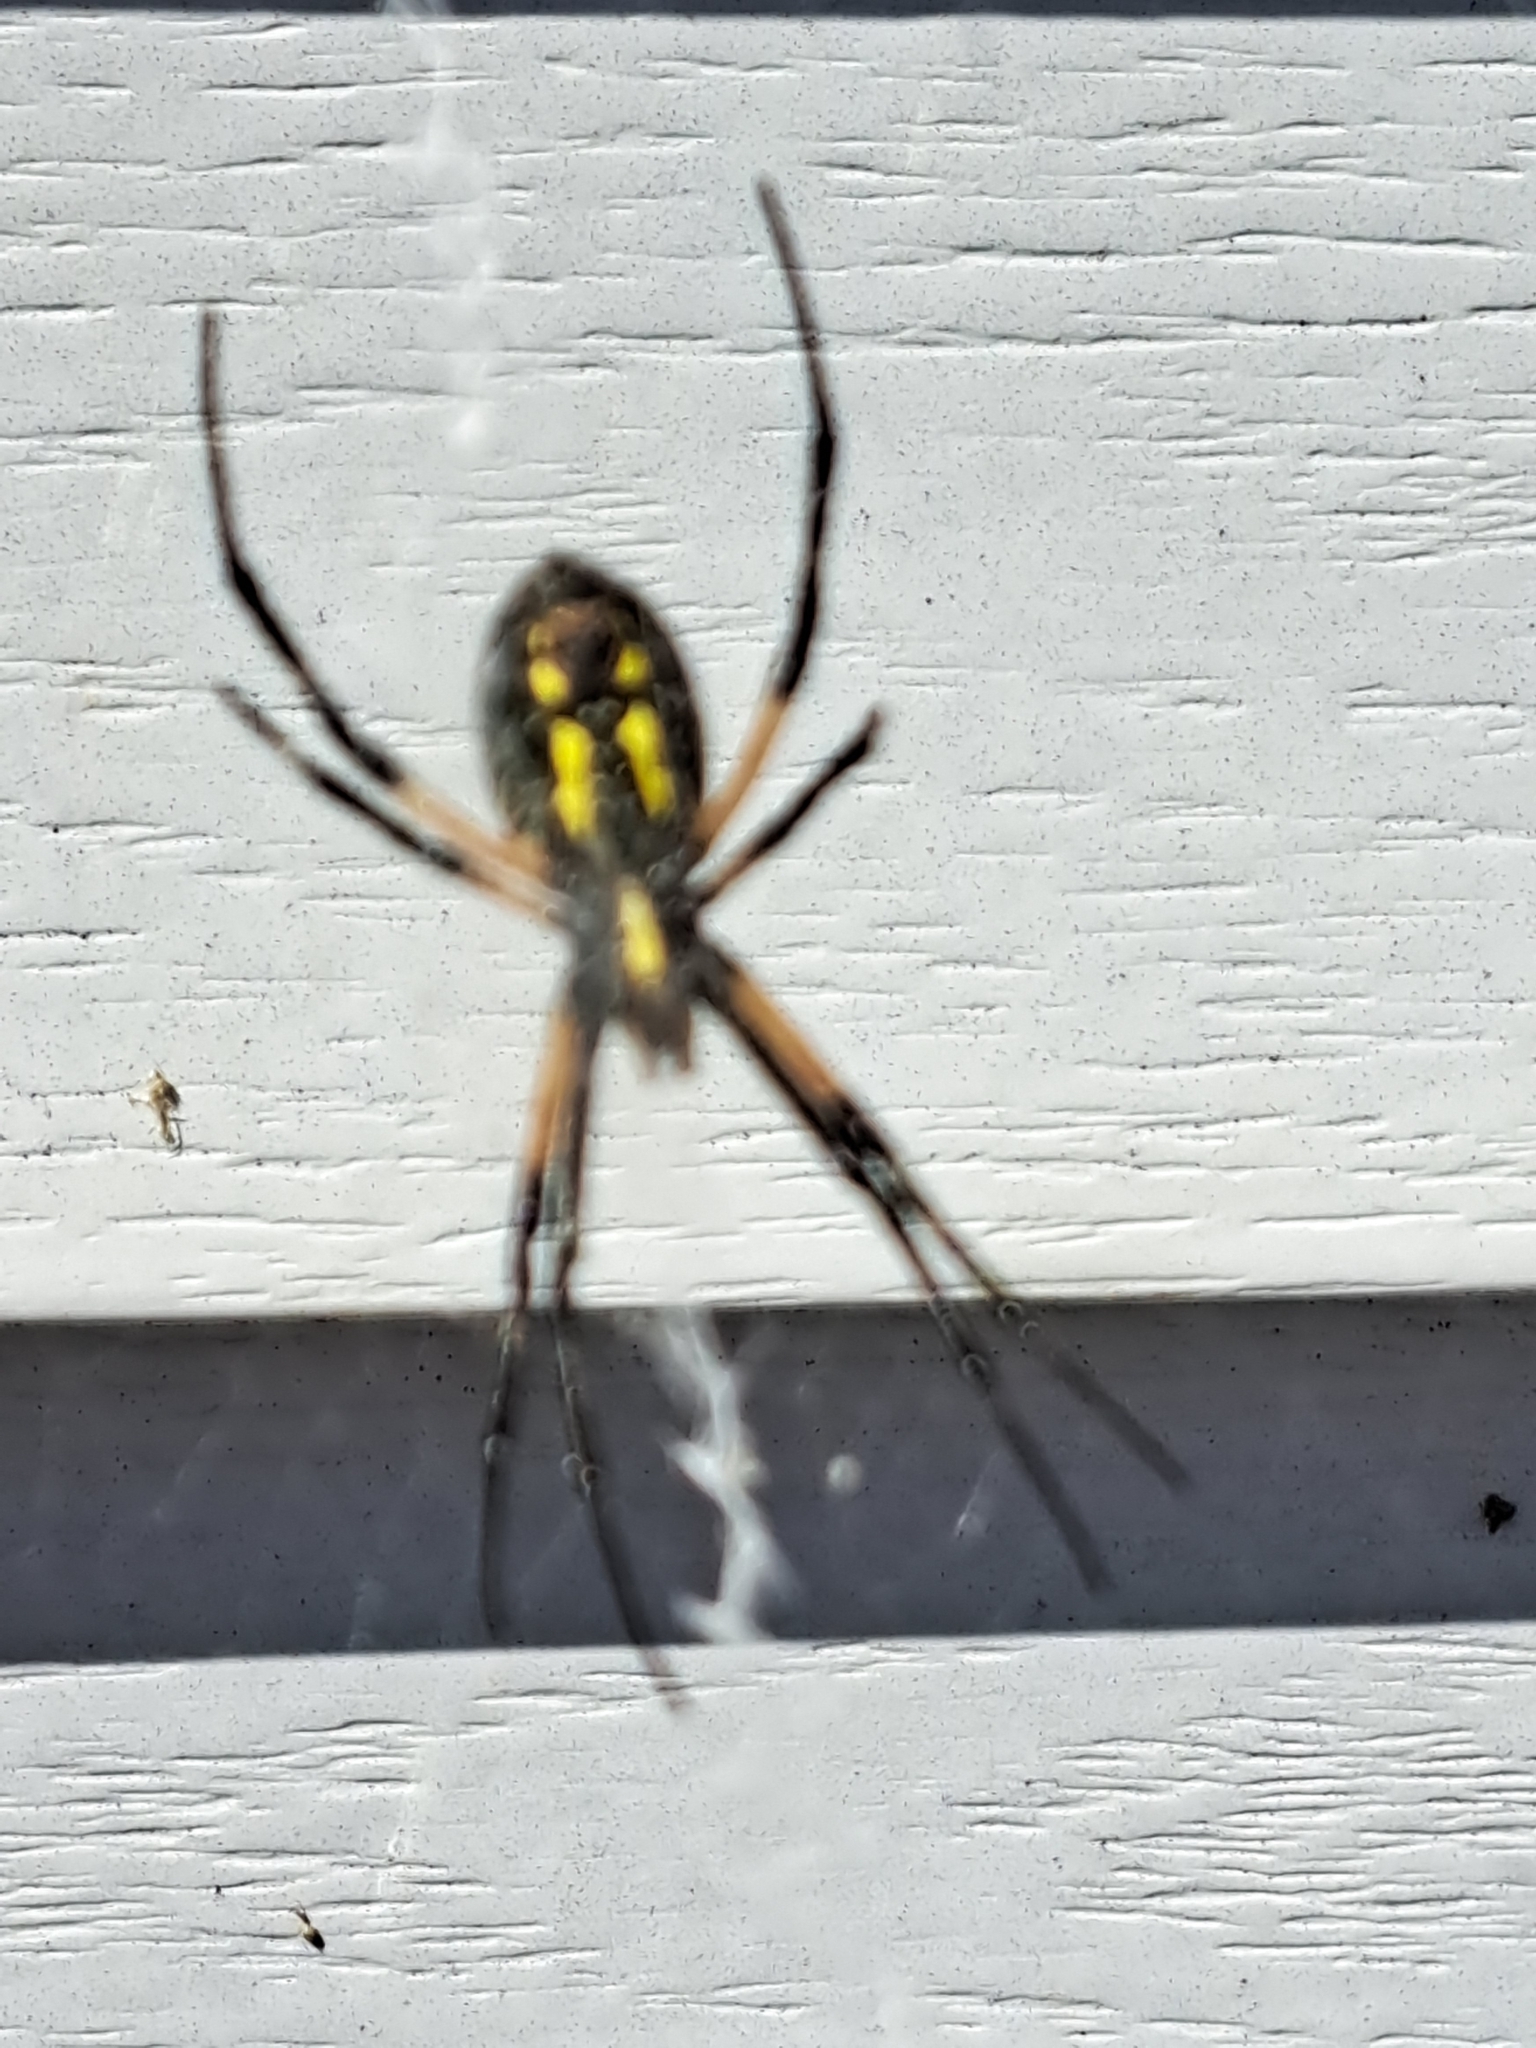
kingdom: Animalia
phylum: Arthropoda
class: Arachnida
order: Araneae
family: Araneidae
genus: Argiope
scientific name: Argiope aurantia
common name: Orb weavers
